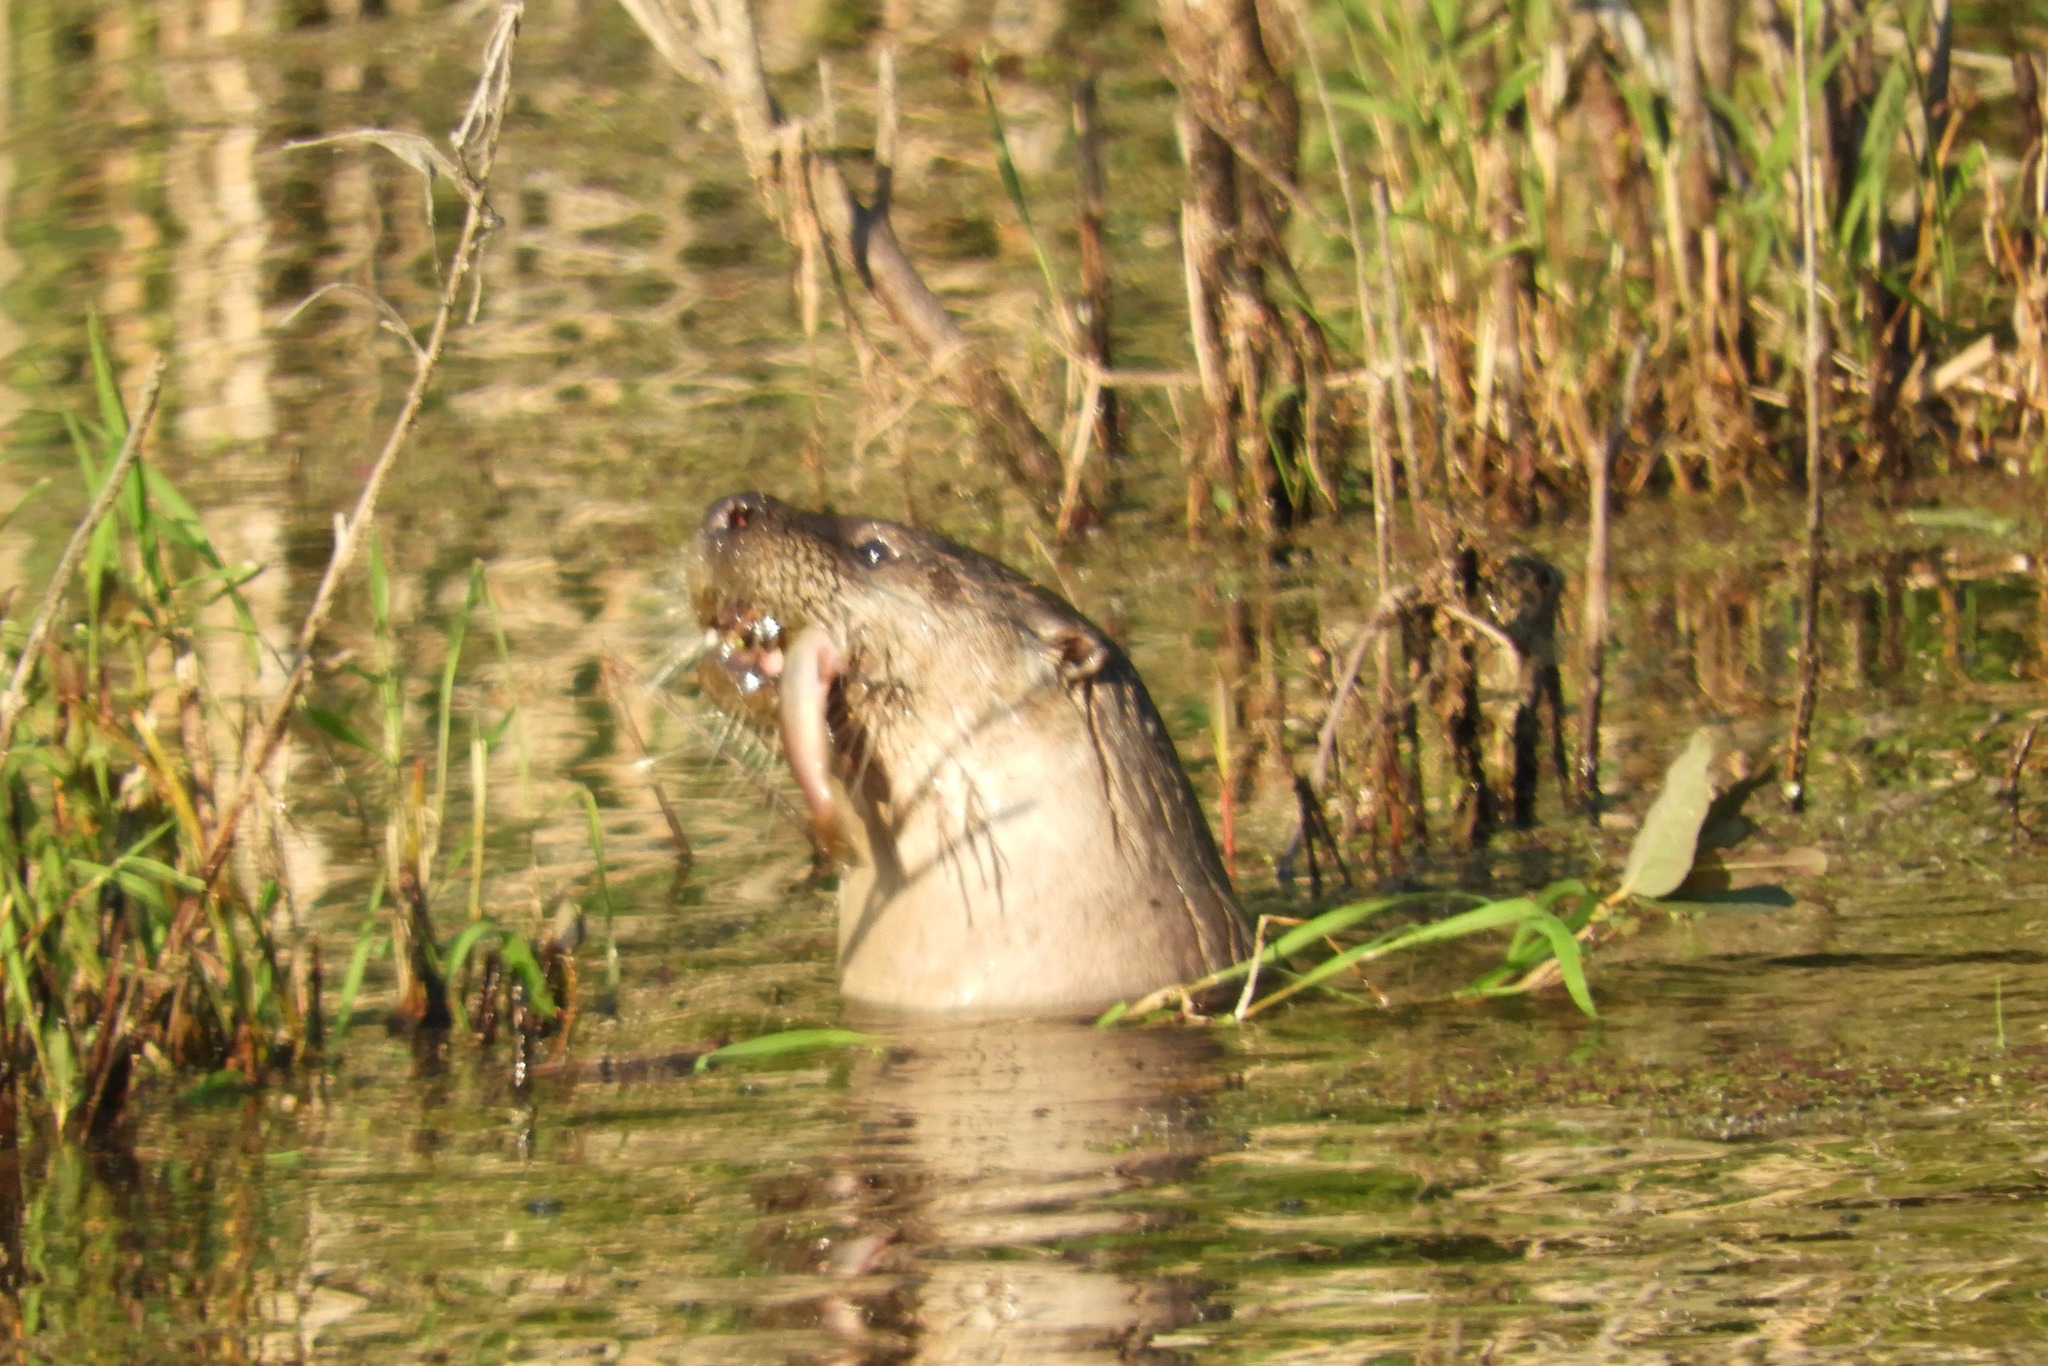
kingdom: Animalia
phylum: Chordata
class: Mammalia
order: Carnivora
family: Mustelidae
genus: Lontra
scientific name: Lontra canadensis
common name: North american river otter
